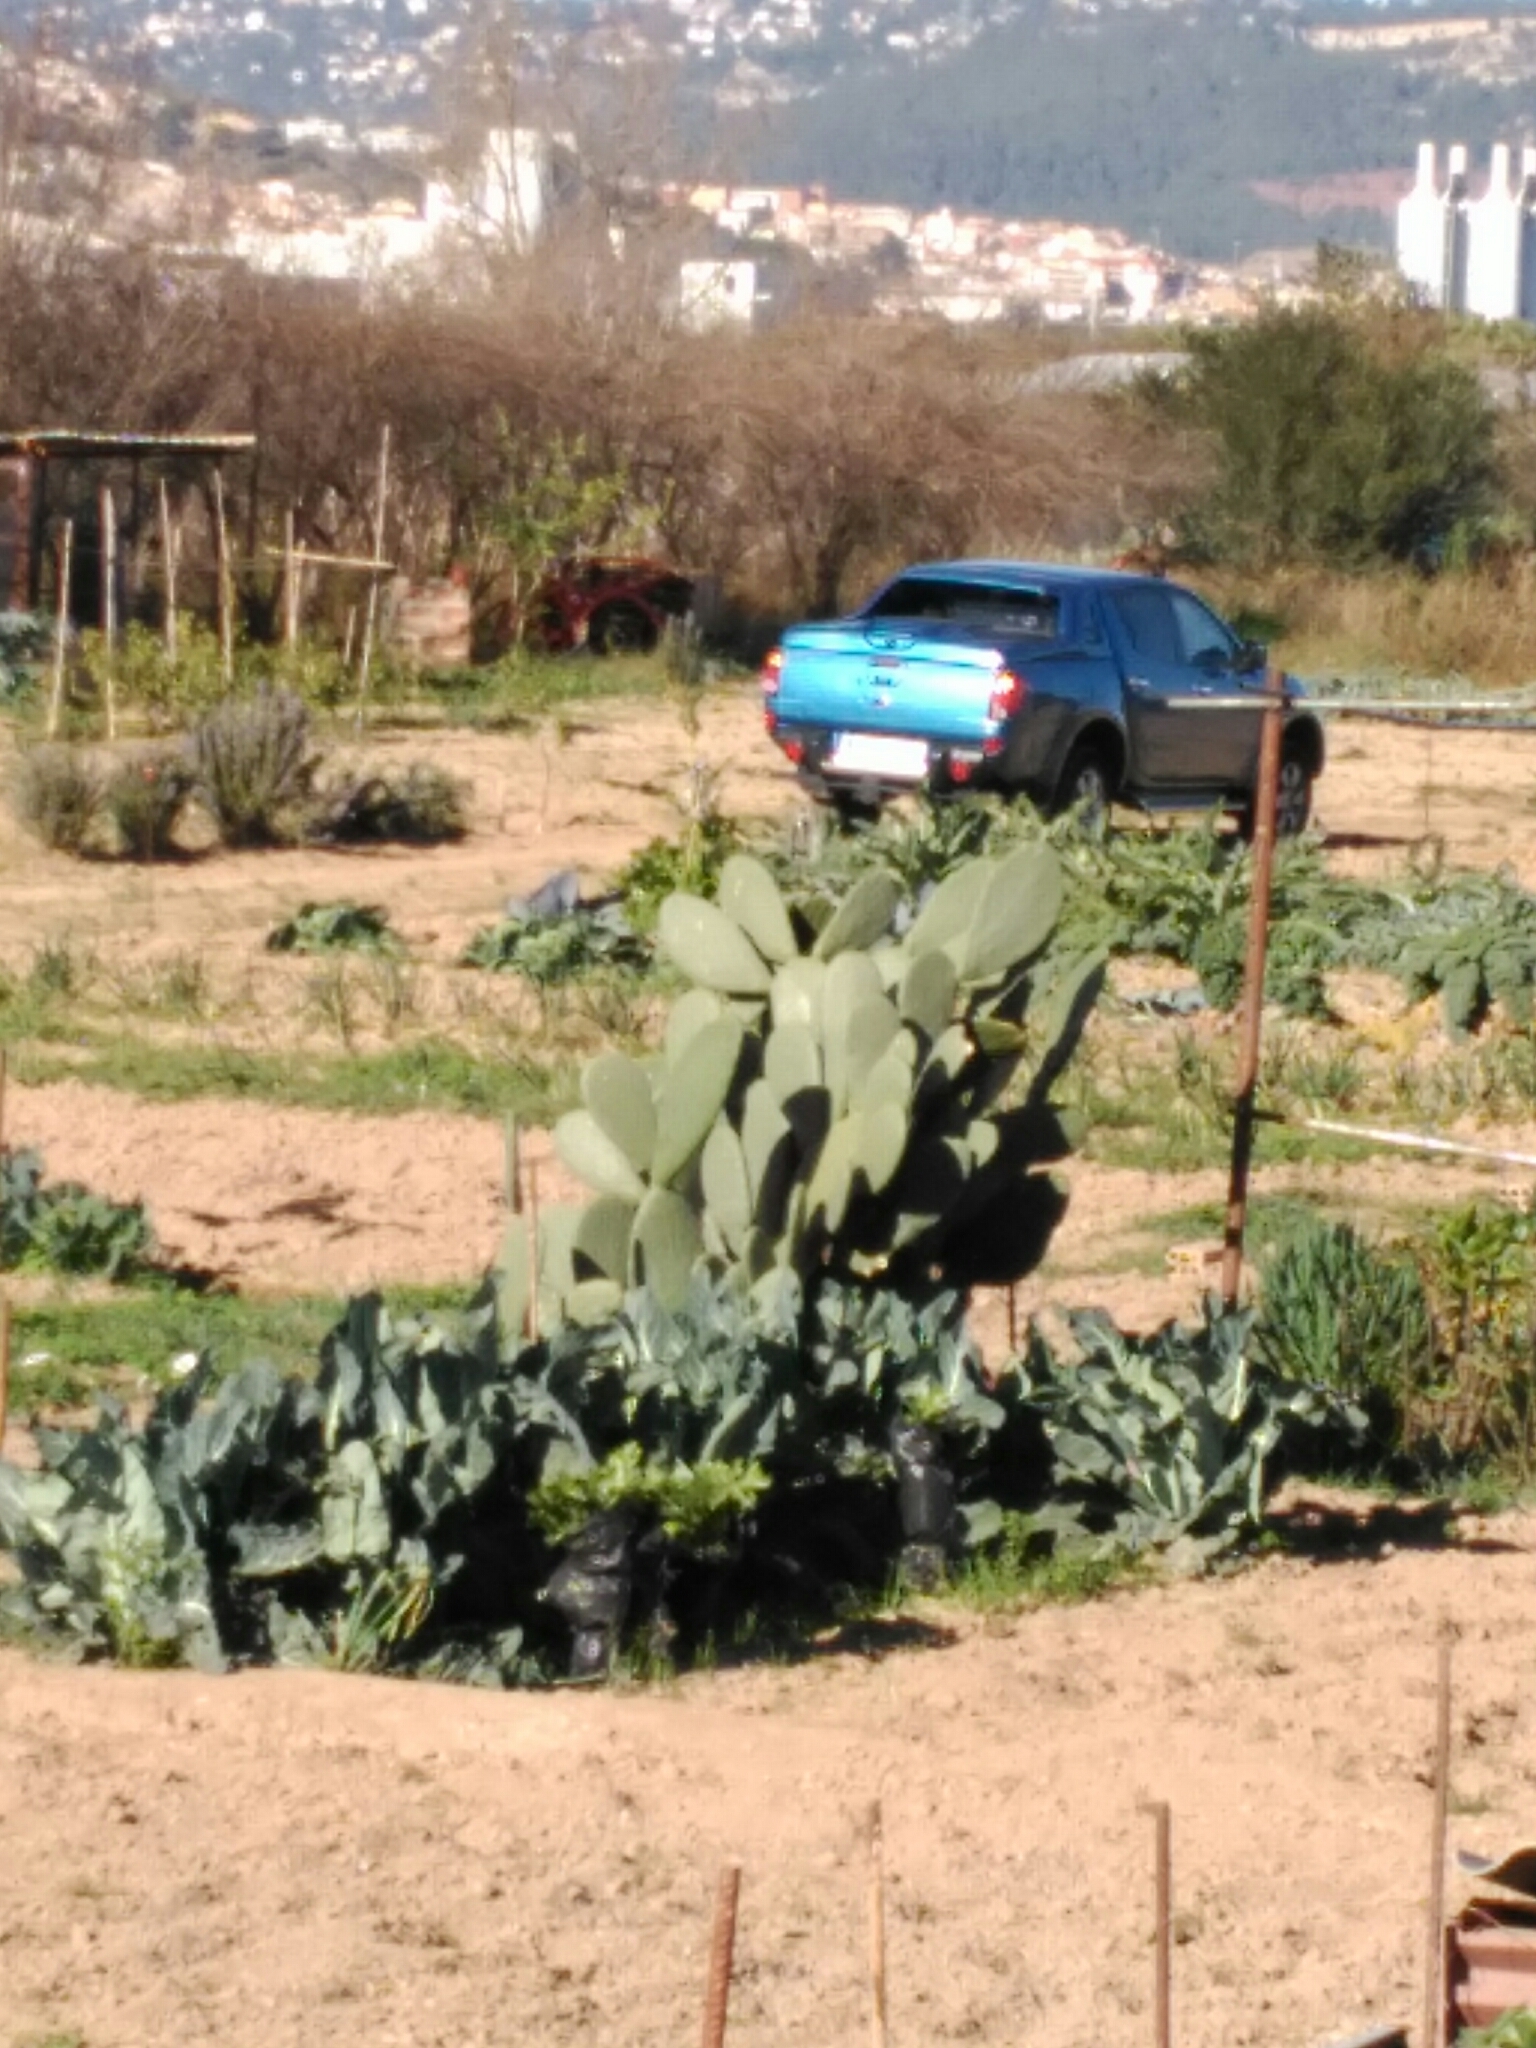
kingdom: Plantae
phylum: Tracheophyta
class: Magnoliopsida
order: Caryophyllales
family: Cactaceae
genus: Opuntia
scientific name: Opuntia ficus-indica
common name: Barbary fig
